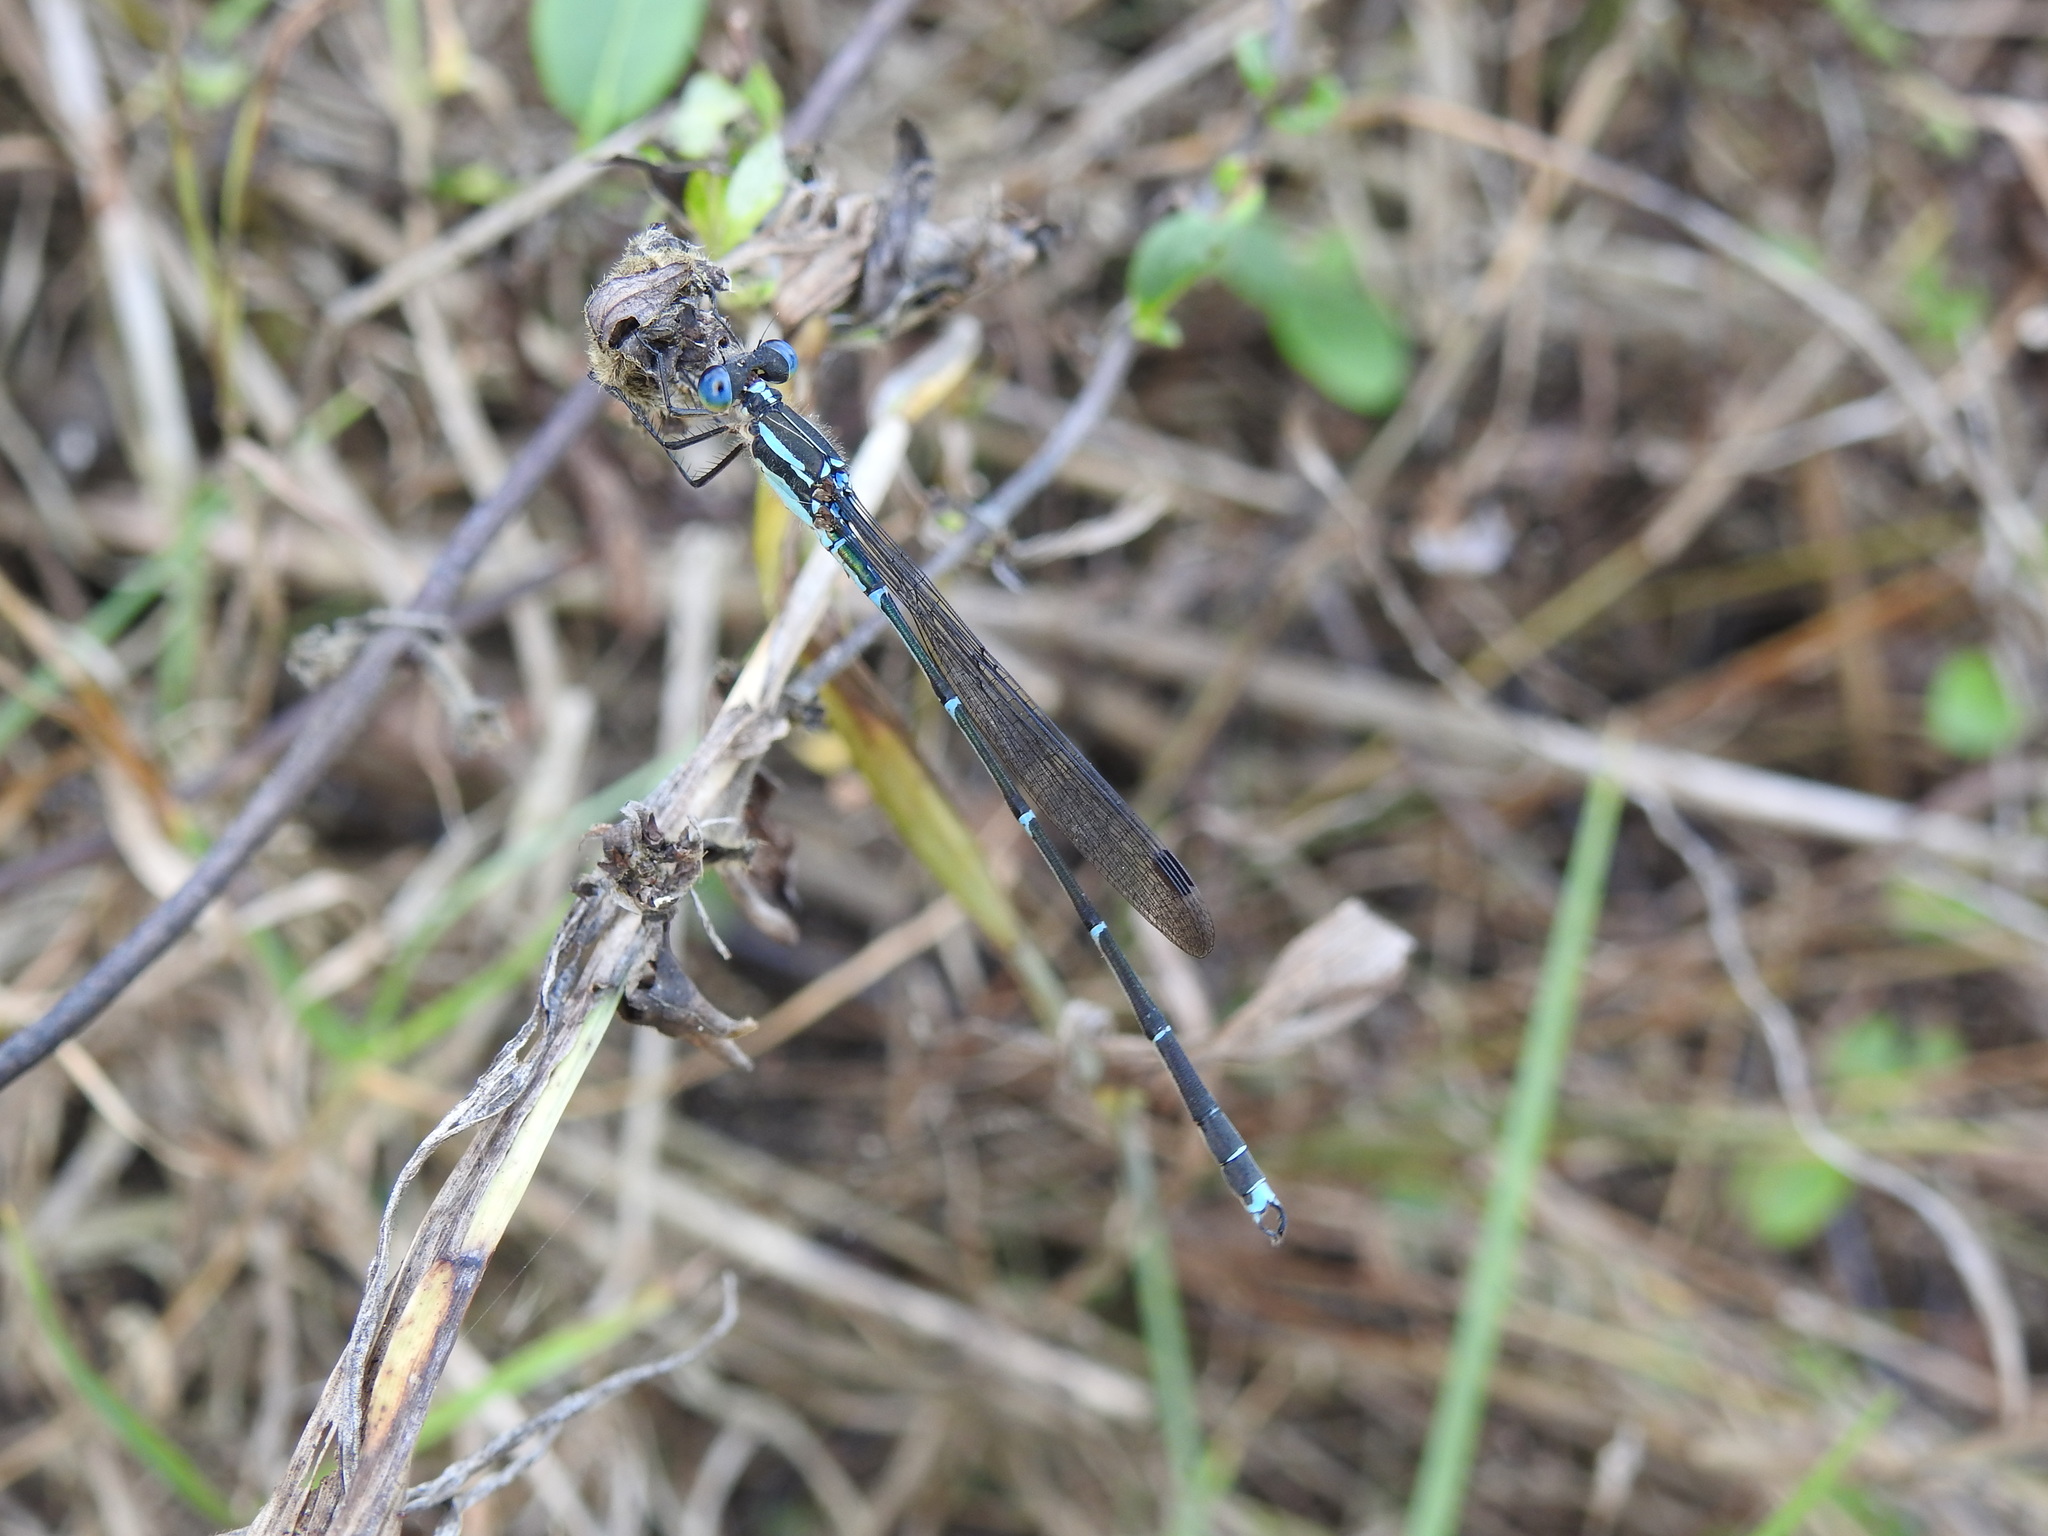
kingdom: Animalia
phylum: Arthropoda
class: Insecta
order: Odonata
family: Lestidae
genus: Austrolestes
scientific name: Austrolestes colensonis
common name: Blue damselfly
